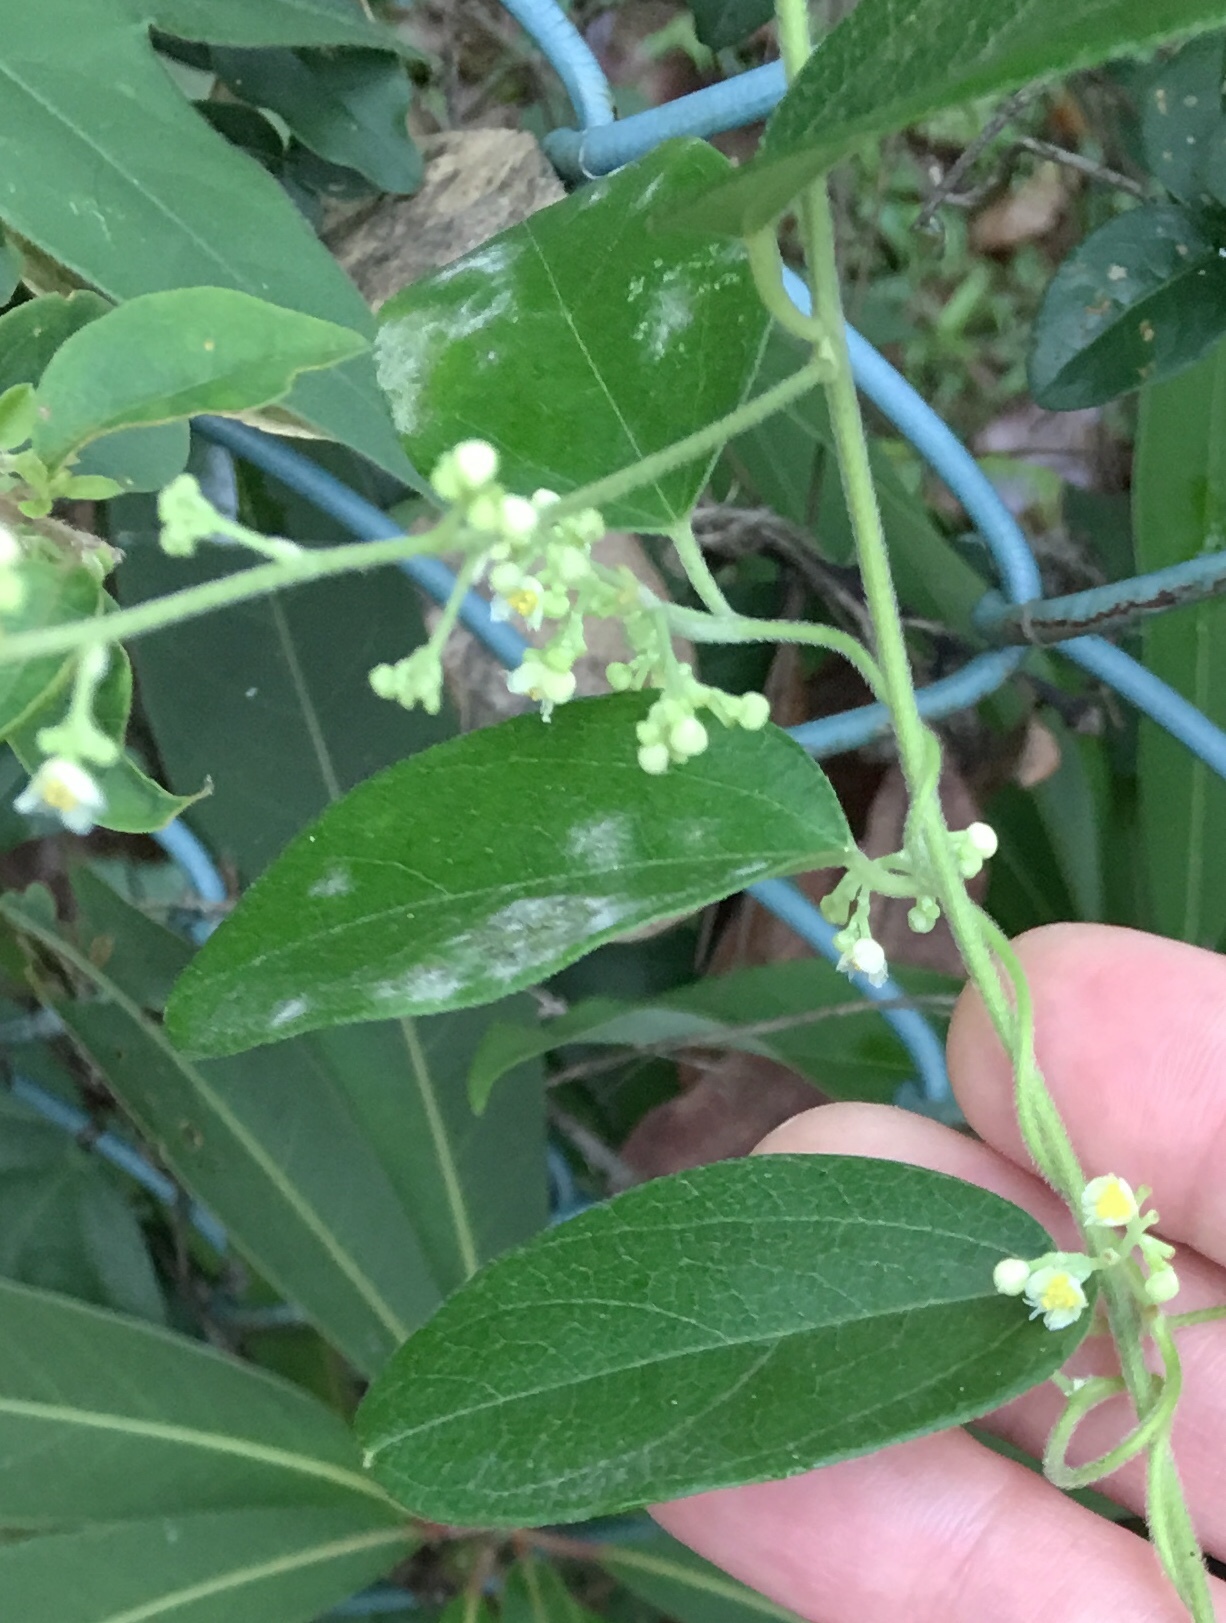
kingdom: Plantae
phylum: Tracheophyta
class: Magnoliopsida
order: Ranunculales
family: Menispermaceae
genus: Cocculus
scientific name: Cocculus orbiculatus
